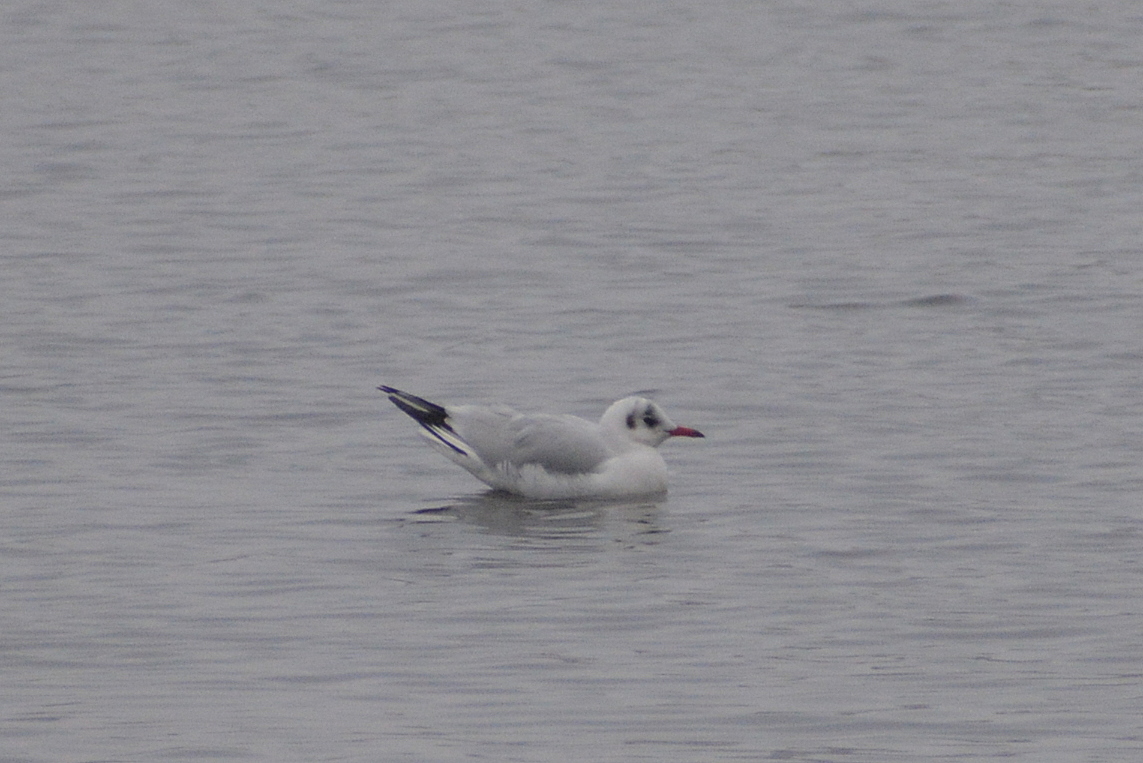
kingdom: Animalia
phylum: Chordata
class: Aves
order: Charadriiformes
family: Laridae
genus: Chroicocephalus
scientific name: Chroicocephalus ridibundus
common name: Black-headed gull
